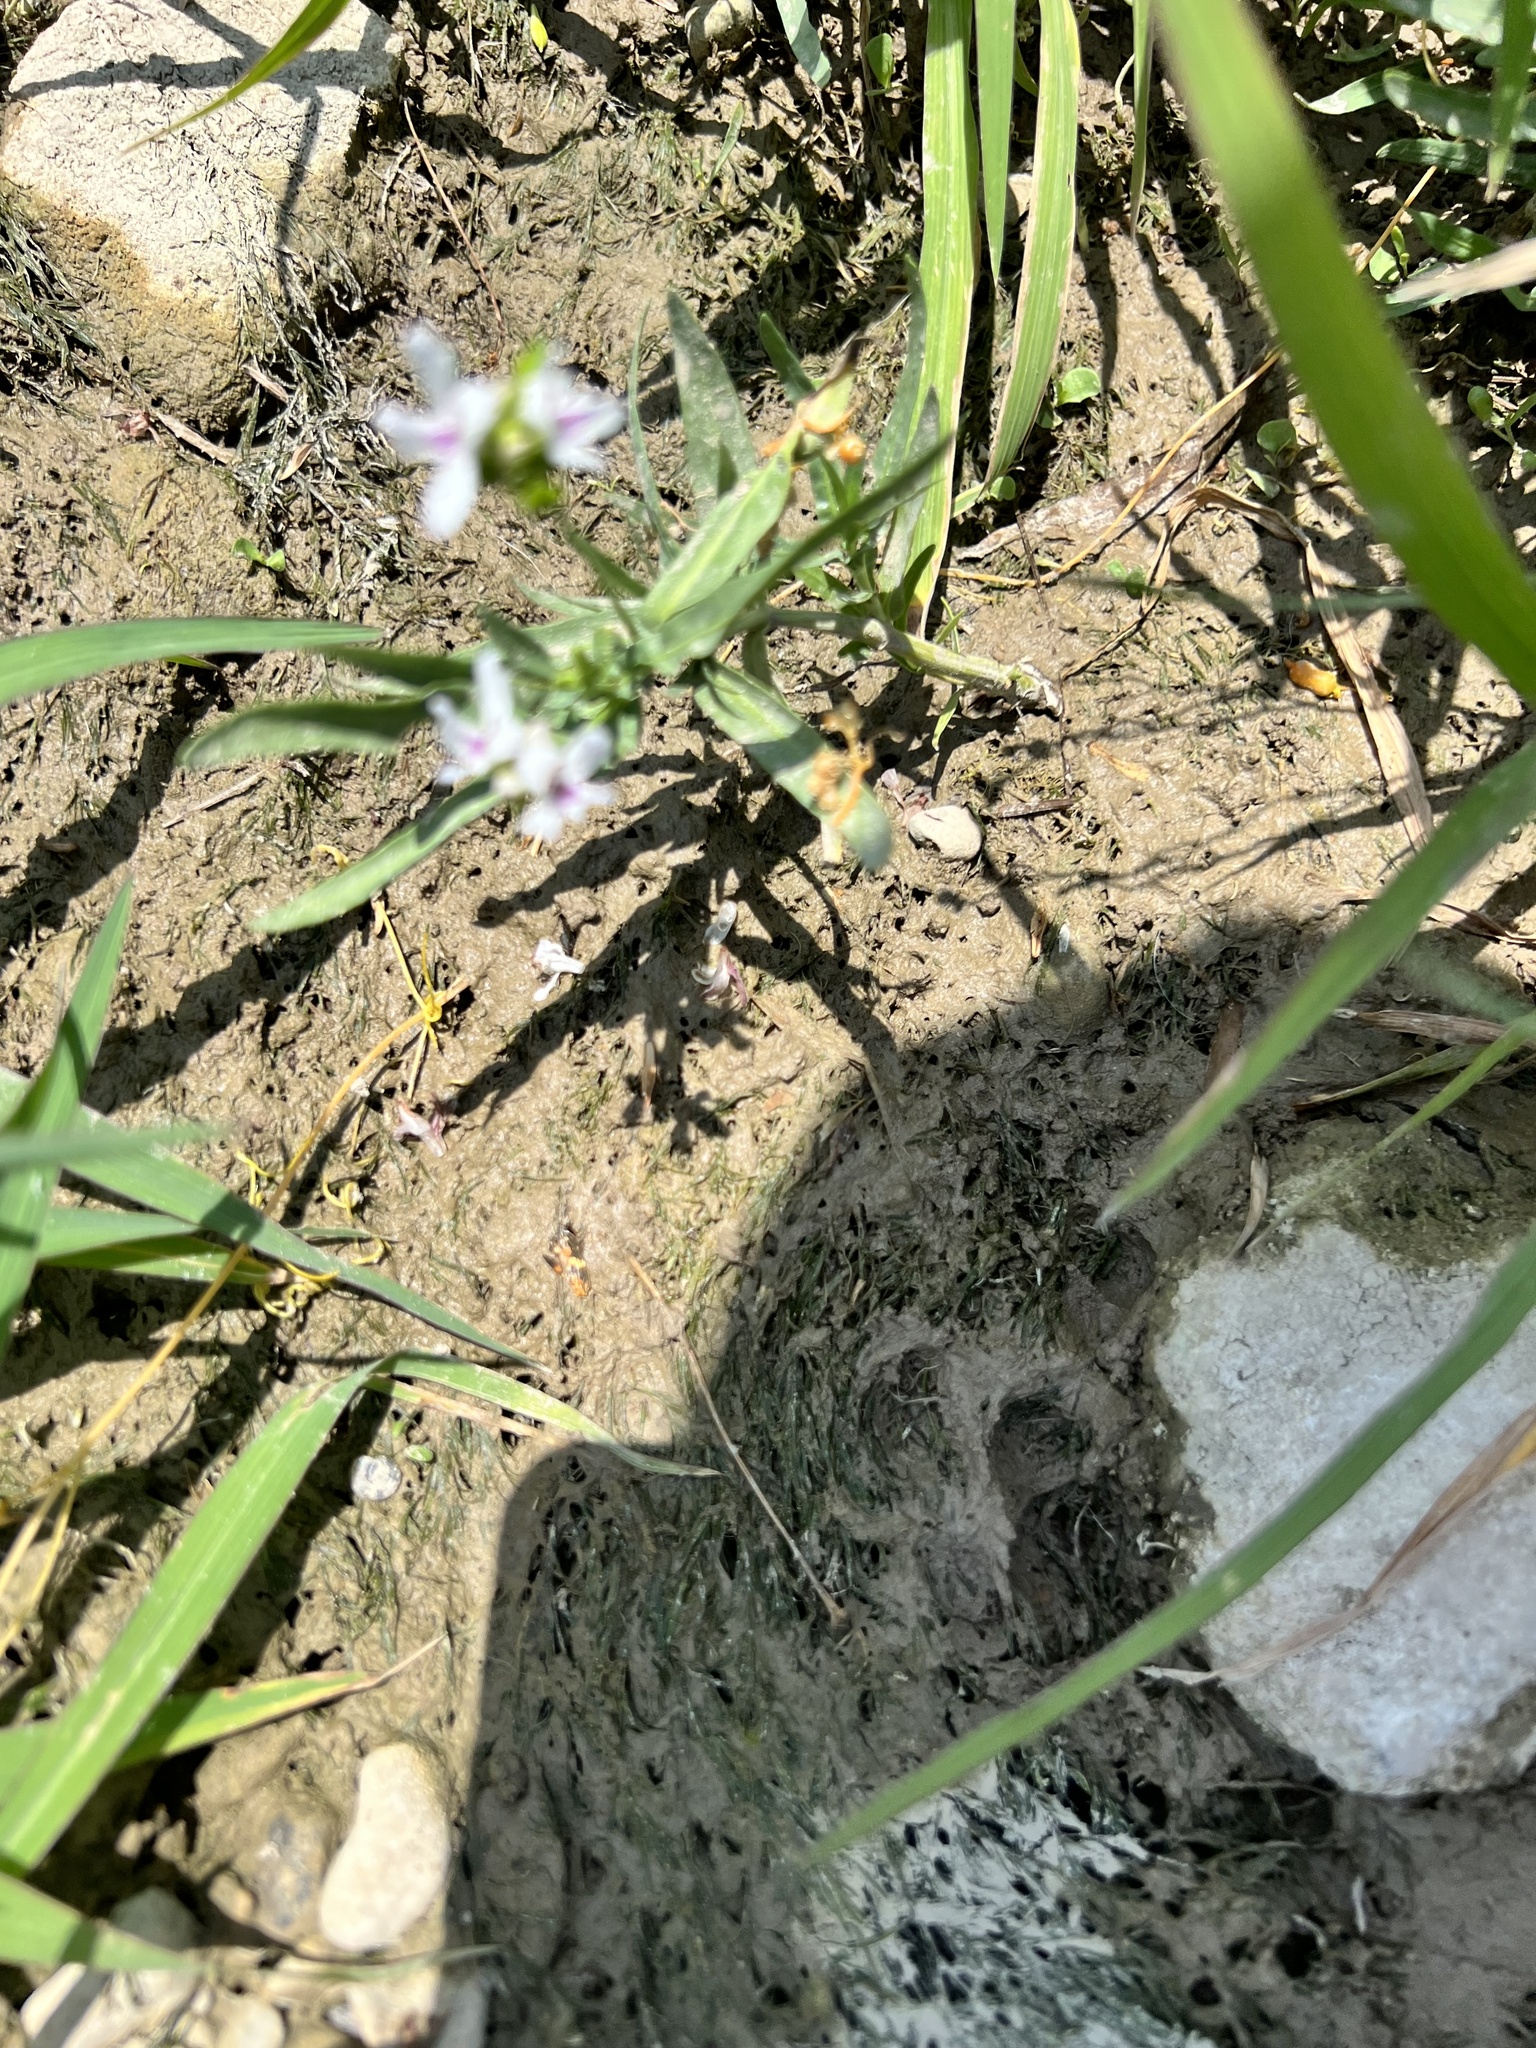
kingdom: Plantae
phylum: Tracheophyta
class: Magnoliopsida
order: Lamiales
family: Acanthaceae
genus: Dianthera
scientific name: Dianthera americana
